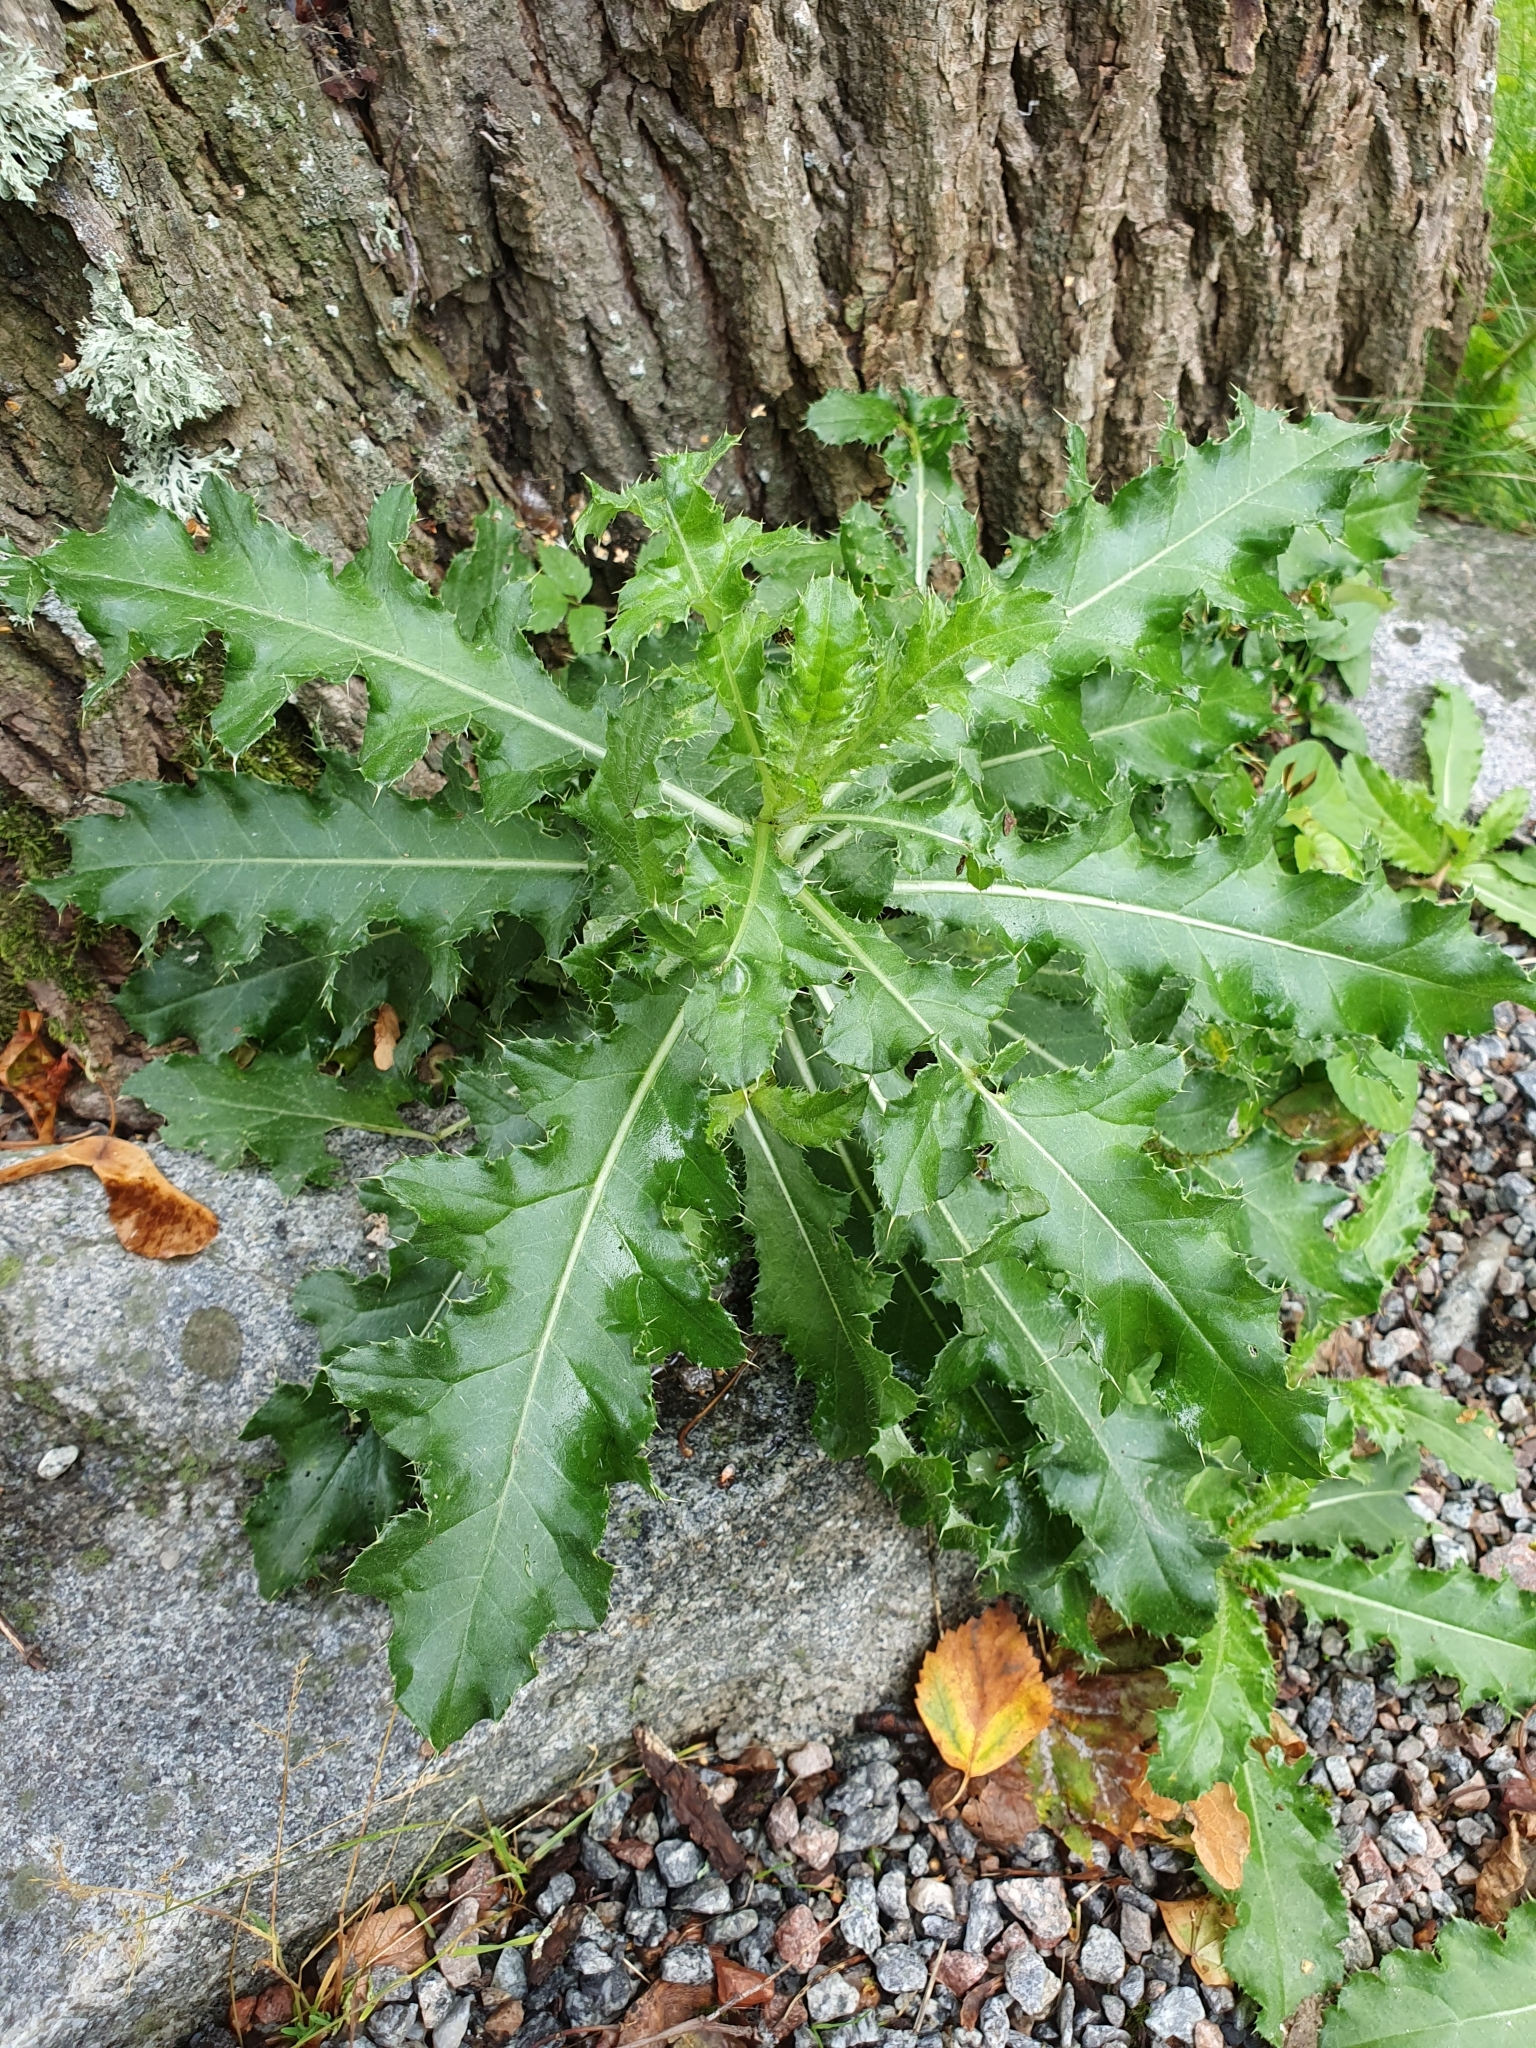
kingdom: Plantae
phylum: Tracheophyta
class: Magnoliopsida
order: Asterales
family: Asteraceae
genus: Cirsium
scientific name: Cirsium arvense
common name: Creeping thistle
